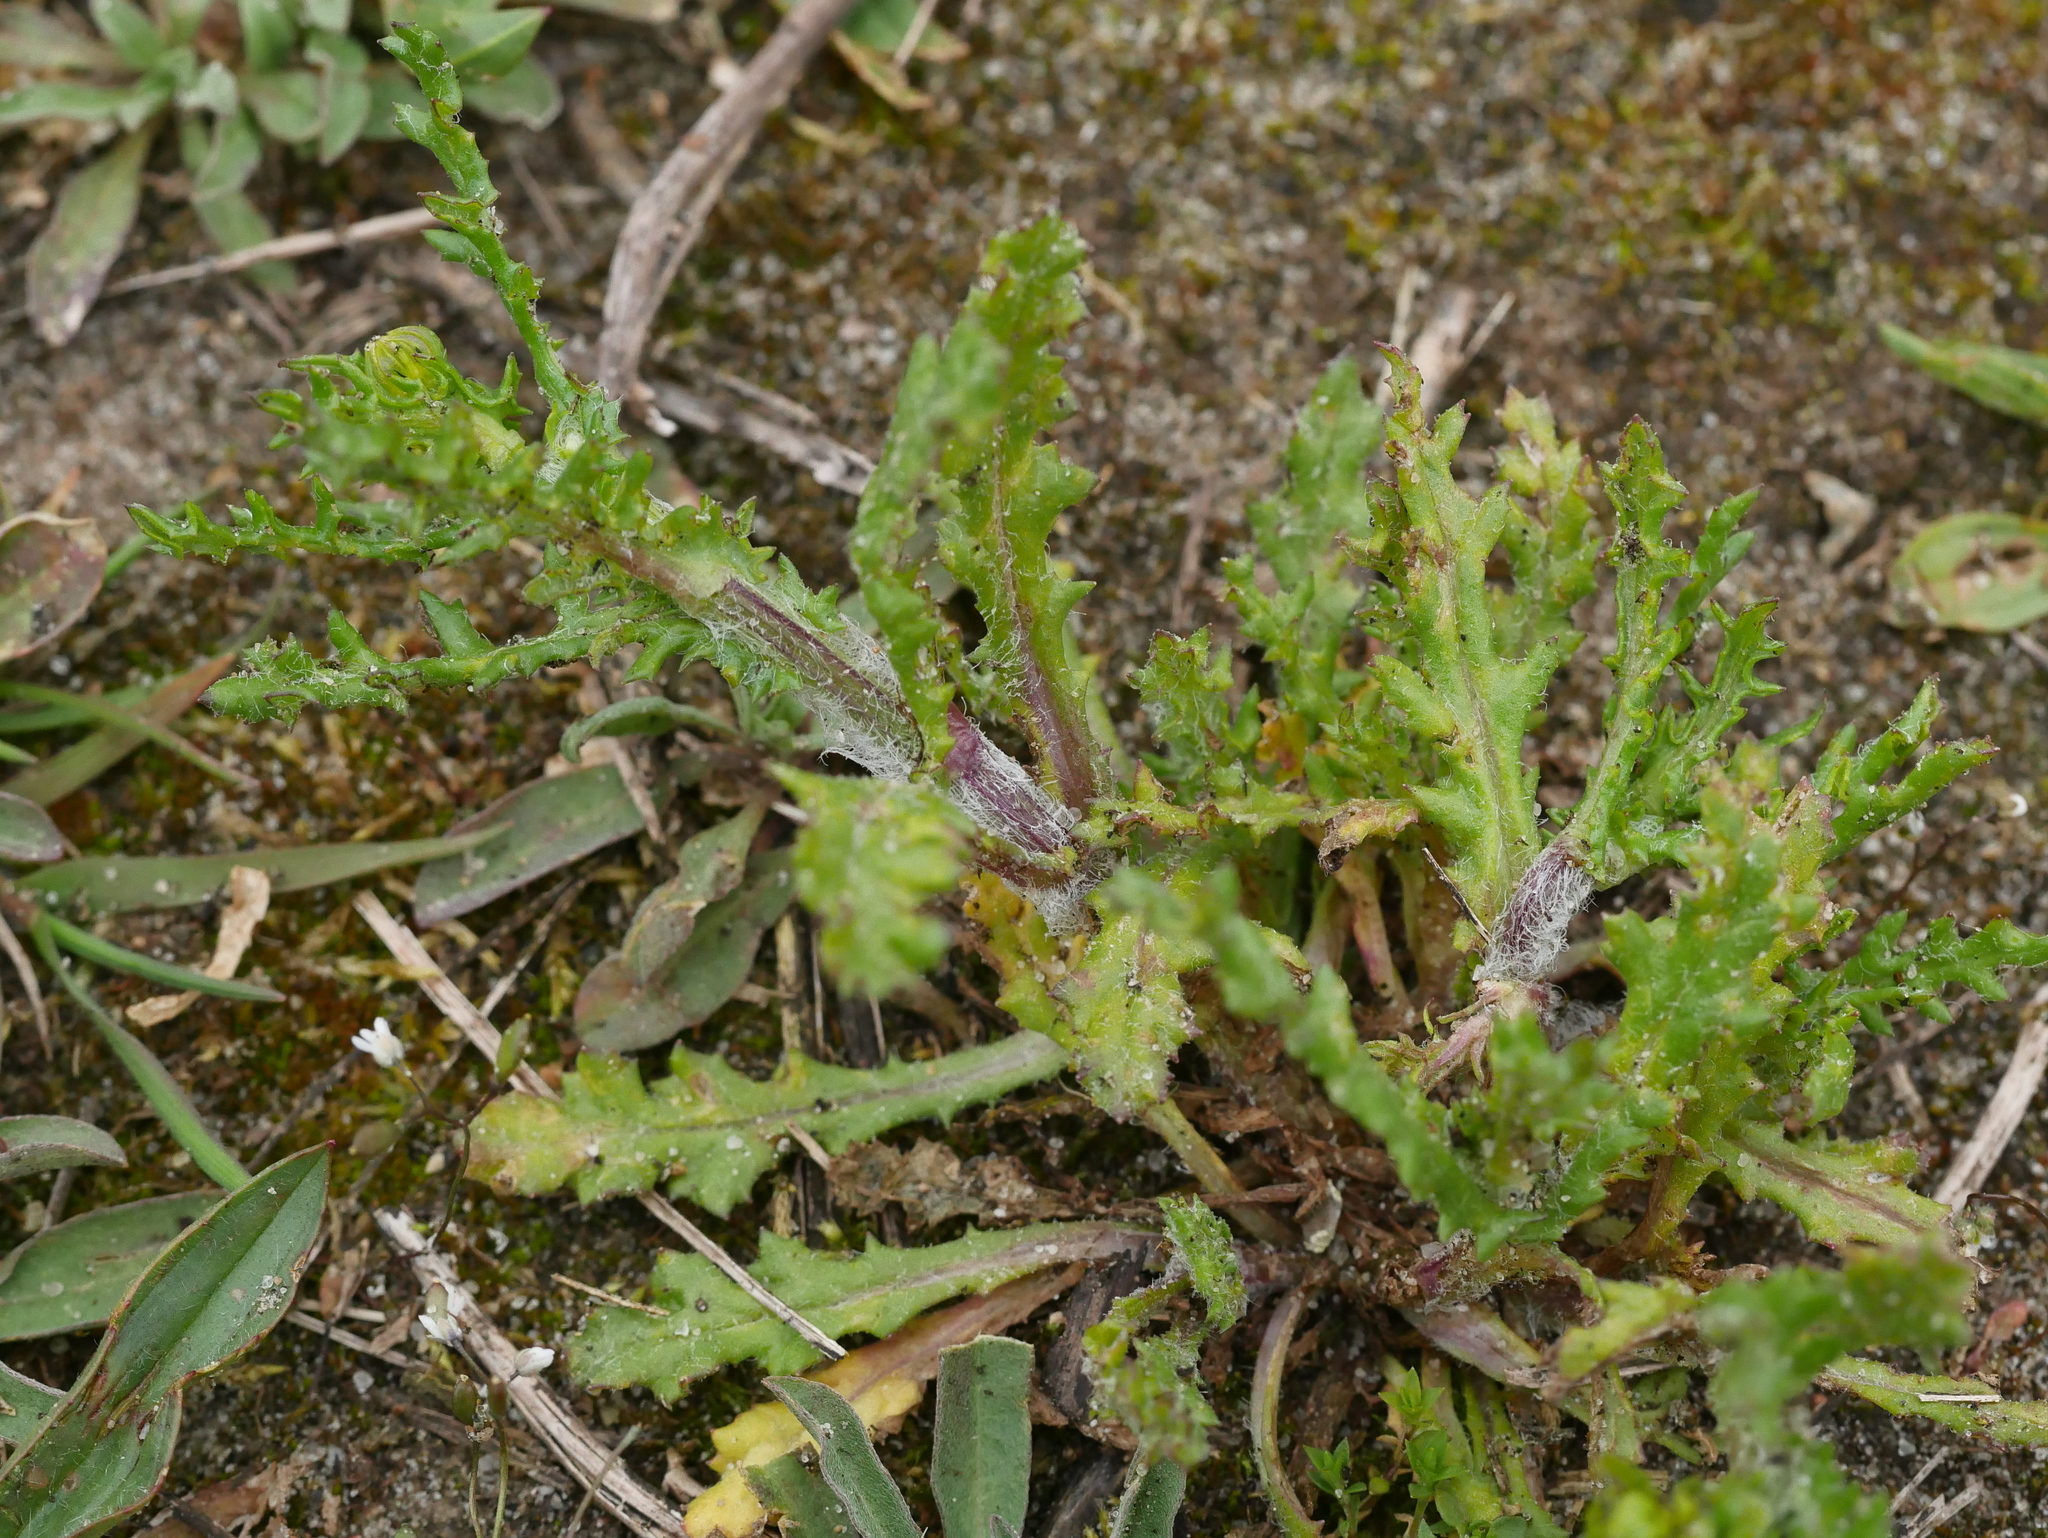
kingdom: Plantae
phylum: Tracheophyta
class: Magnoliopsida
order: Asterales
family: Asteraceae
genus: Senecio
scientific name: Senecio vulgaris
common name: Old-man-in-the-spring
